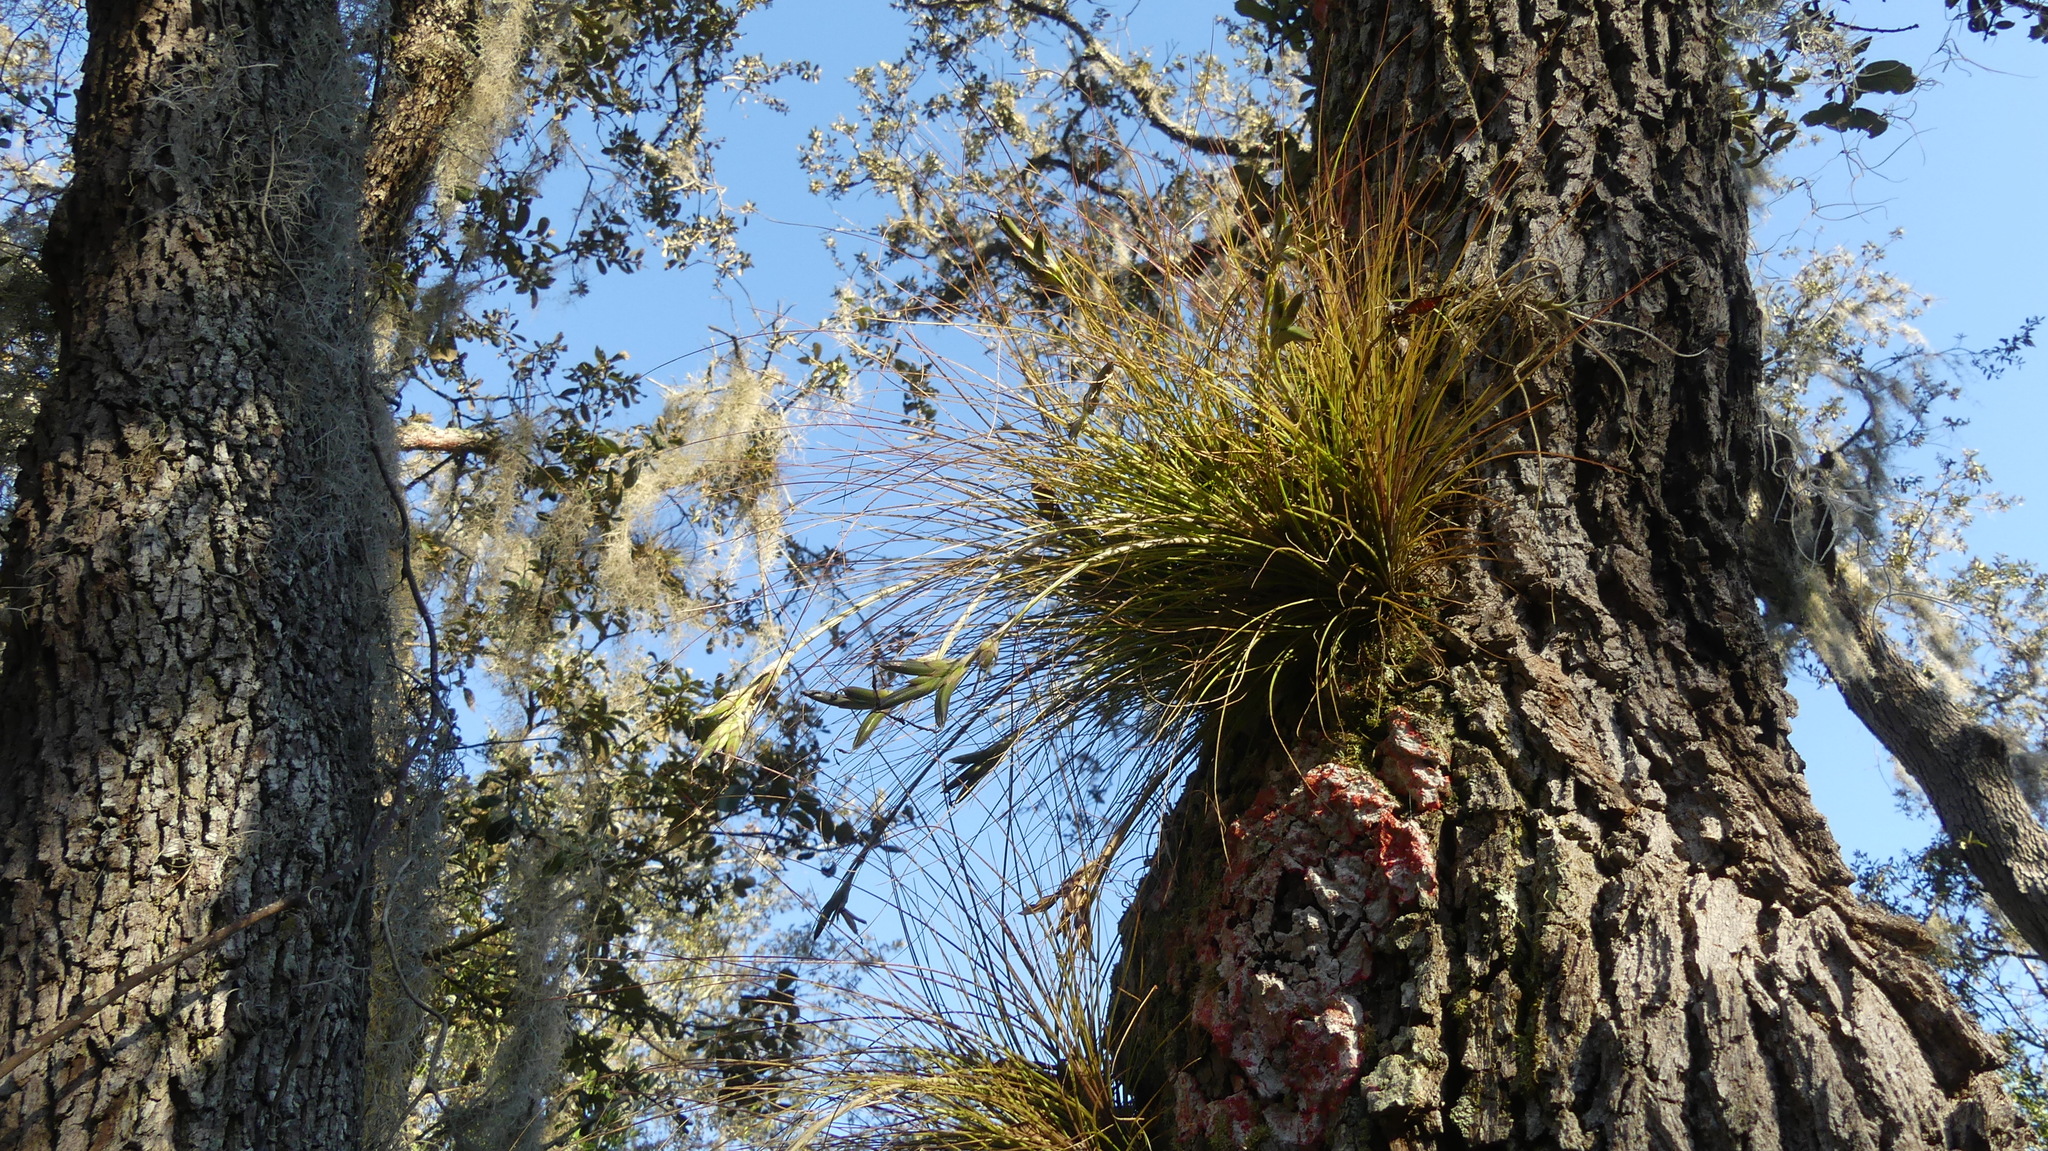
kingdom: Plantae
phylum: Tracheophyta
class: Liliopsida
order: Poales
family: Bromeliaceae
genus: Tillandsia
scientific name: Tillandsia setacea
